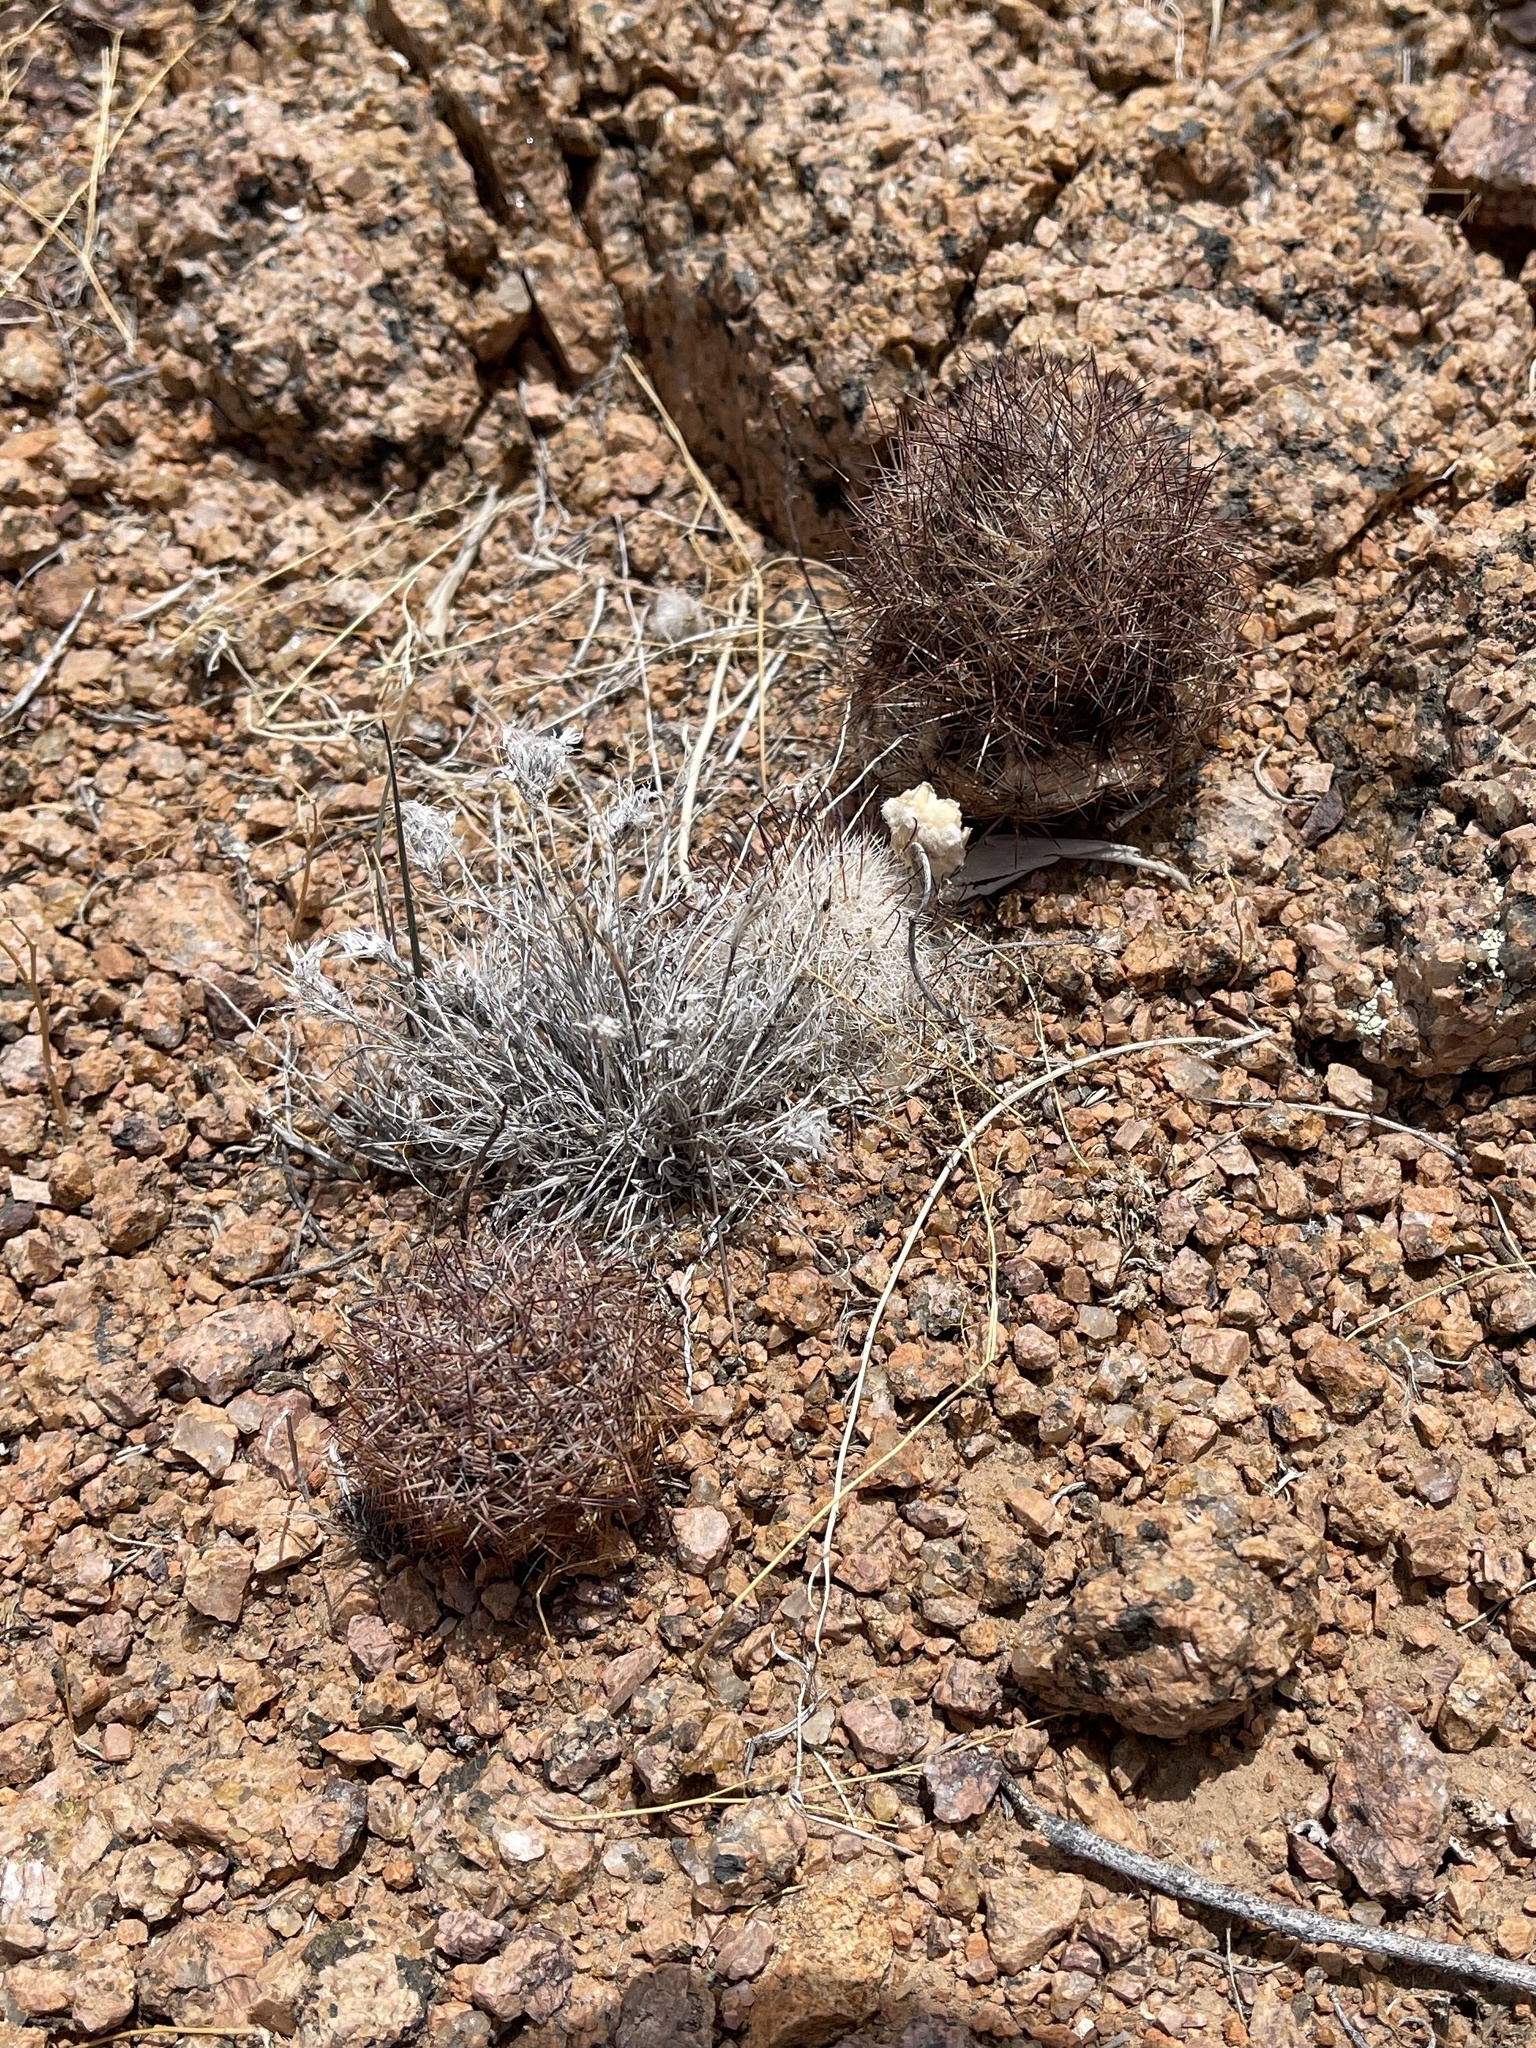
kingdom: Plantae
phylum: Tracheophyta
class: Magnoliopsida
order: Caryophyllales
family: Cactaceae
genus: Sclerocactus
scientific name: Sclerocactus intertextus
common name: White fish-hook cactus
